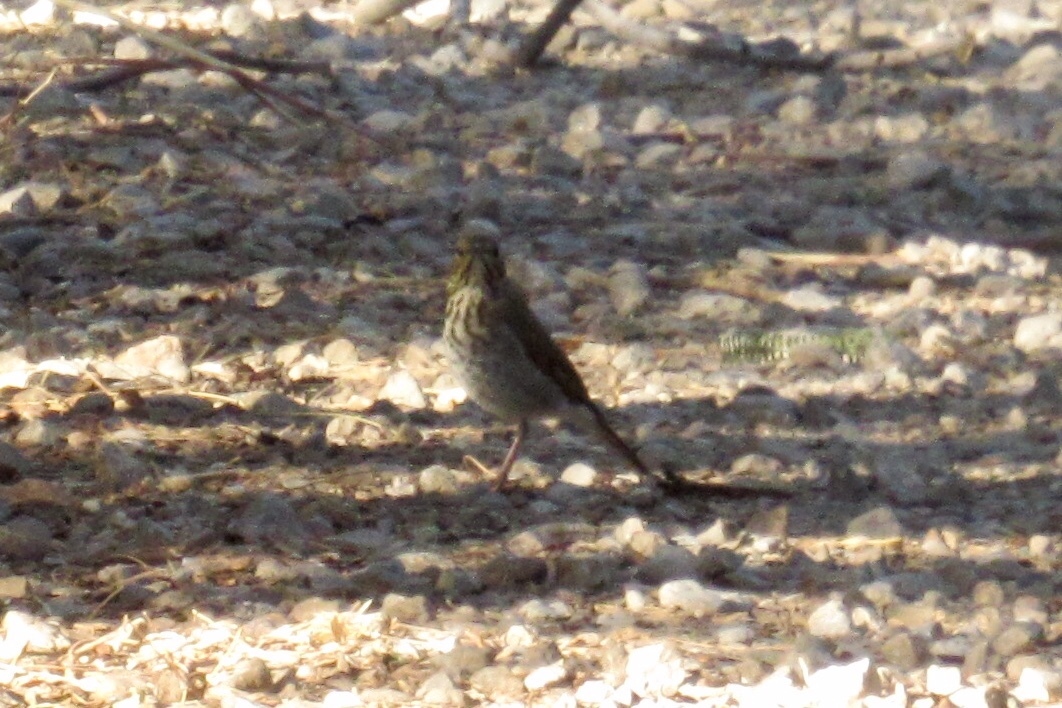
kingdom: Animalia
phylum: Chordata
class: Aves
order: Passeriformes
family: Turdidae
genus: Catharus
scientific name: Catharus guttatus
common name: Hermit thrush
